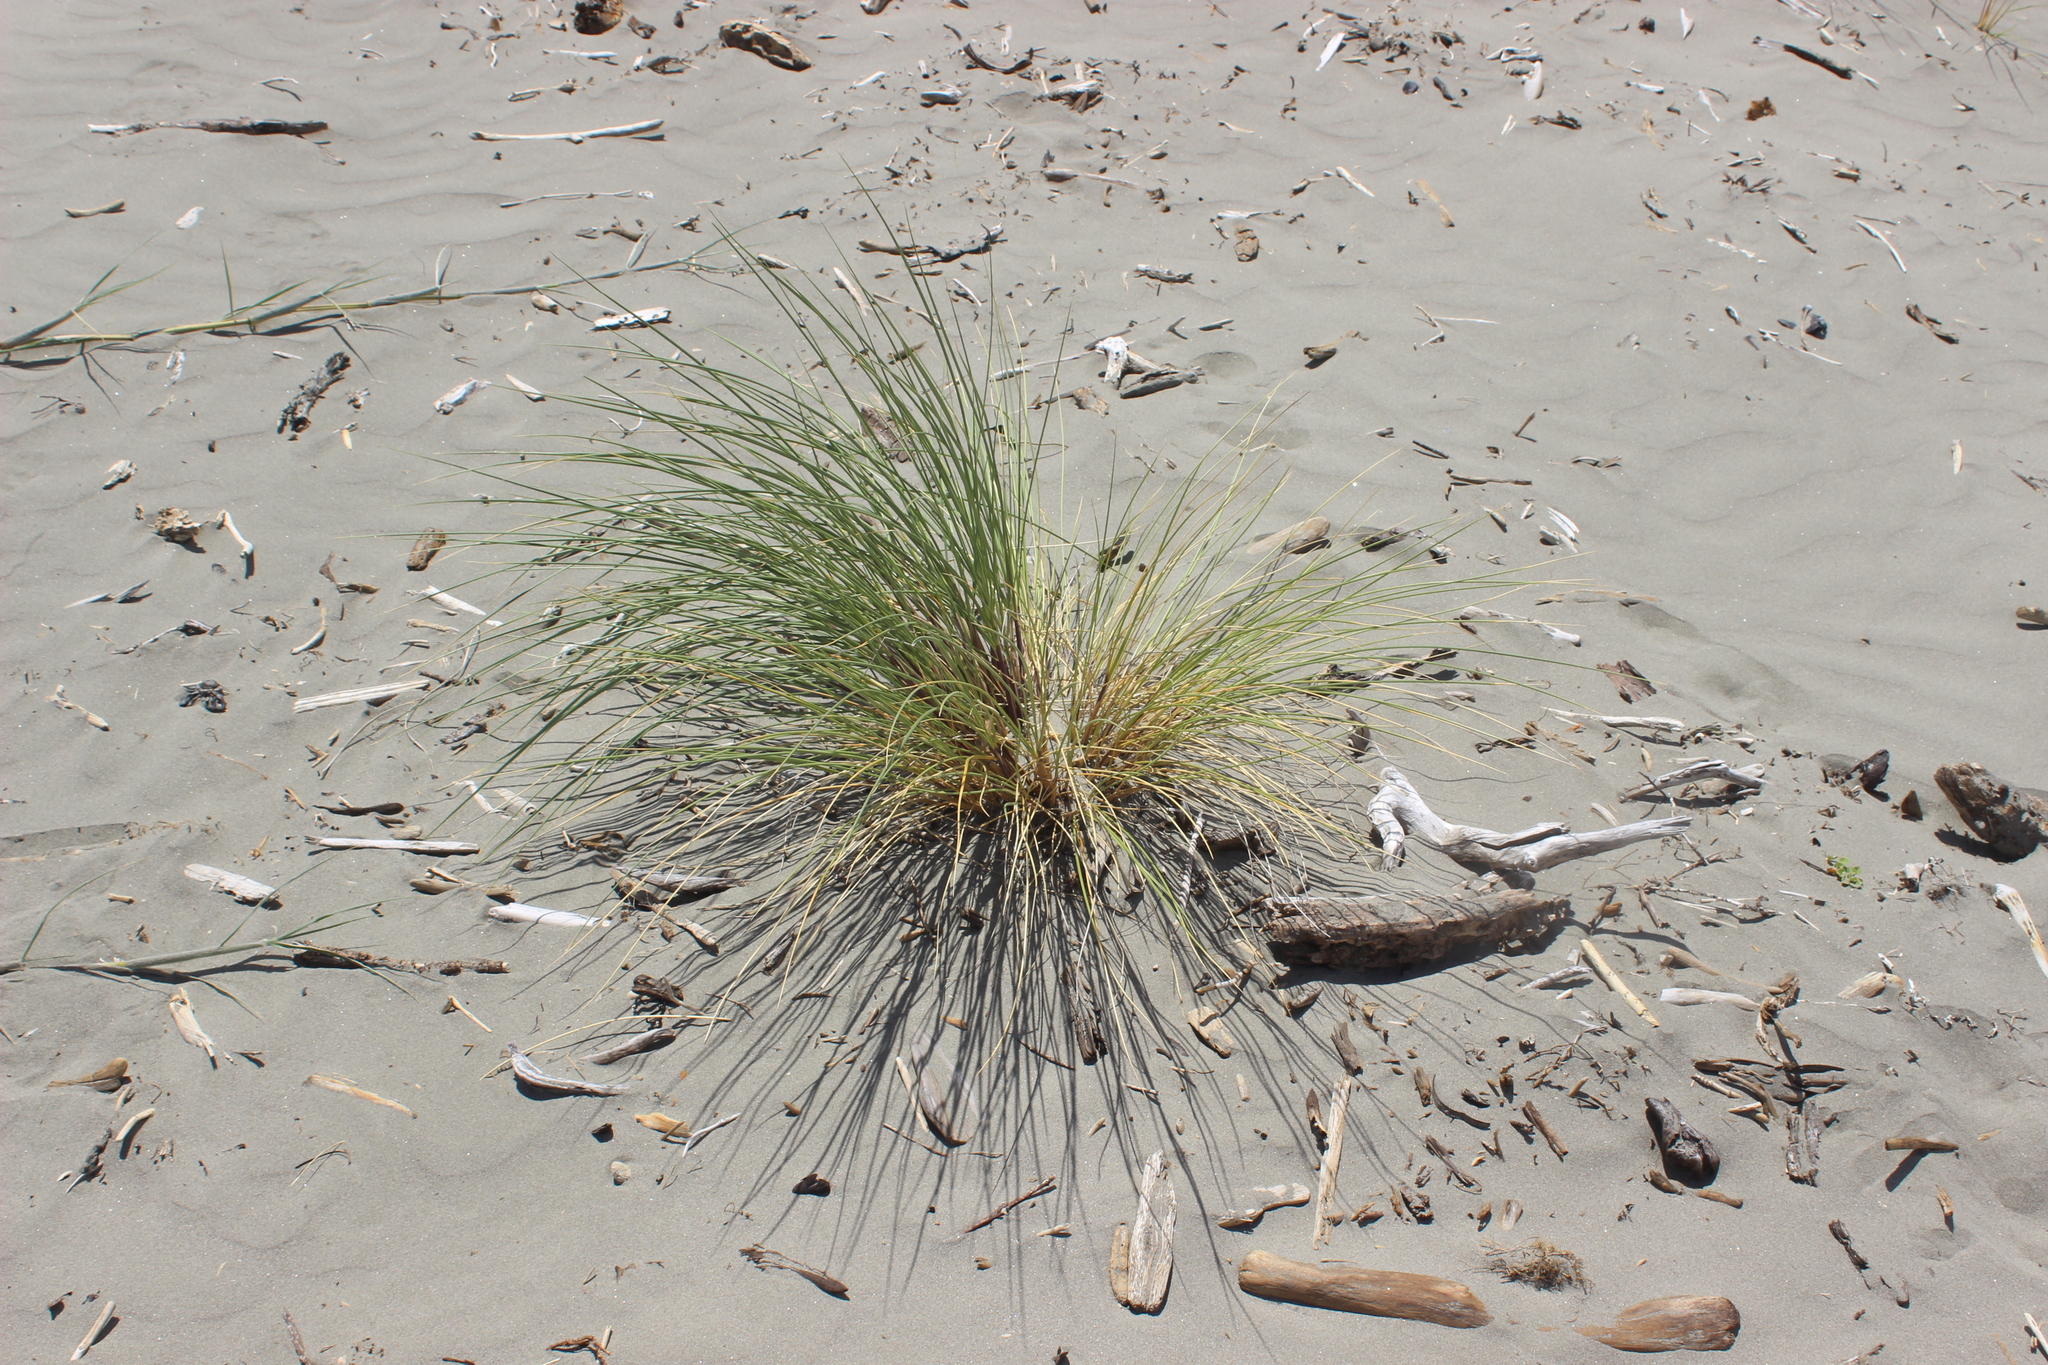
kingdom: Plantae
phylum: Tracheophyta
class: Liliopsida
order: Poales
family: Poaceae
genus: Calamagrostis
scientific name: Calamagrostis arenaria
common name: European beachgrass
